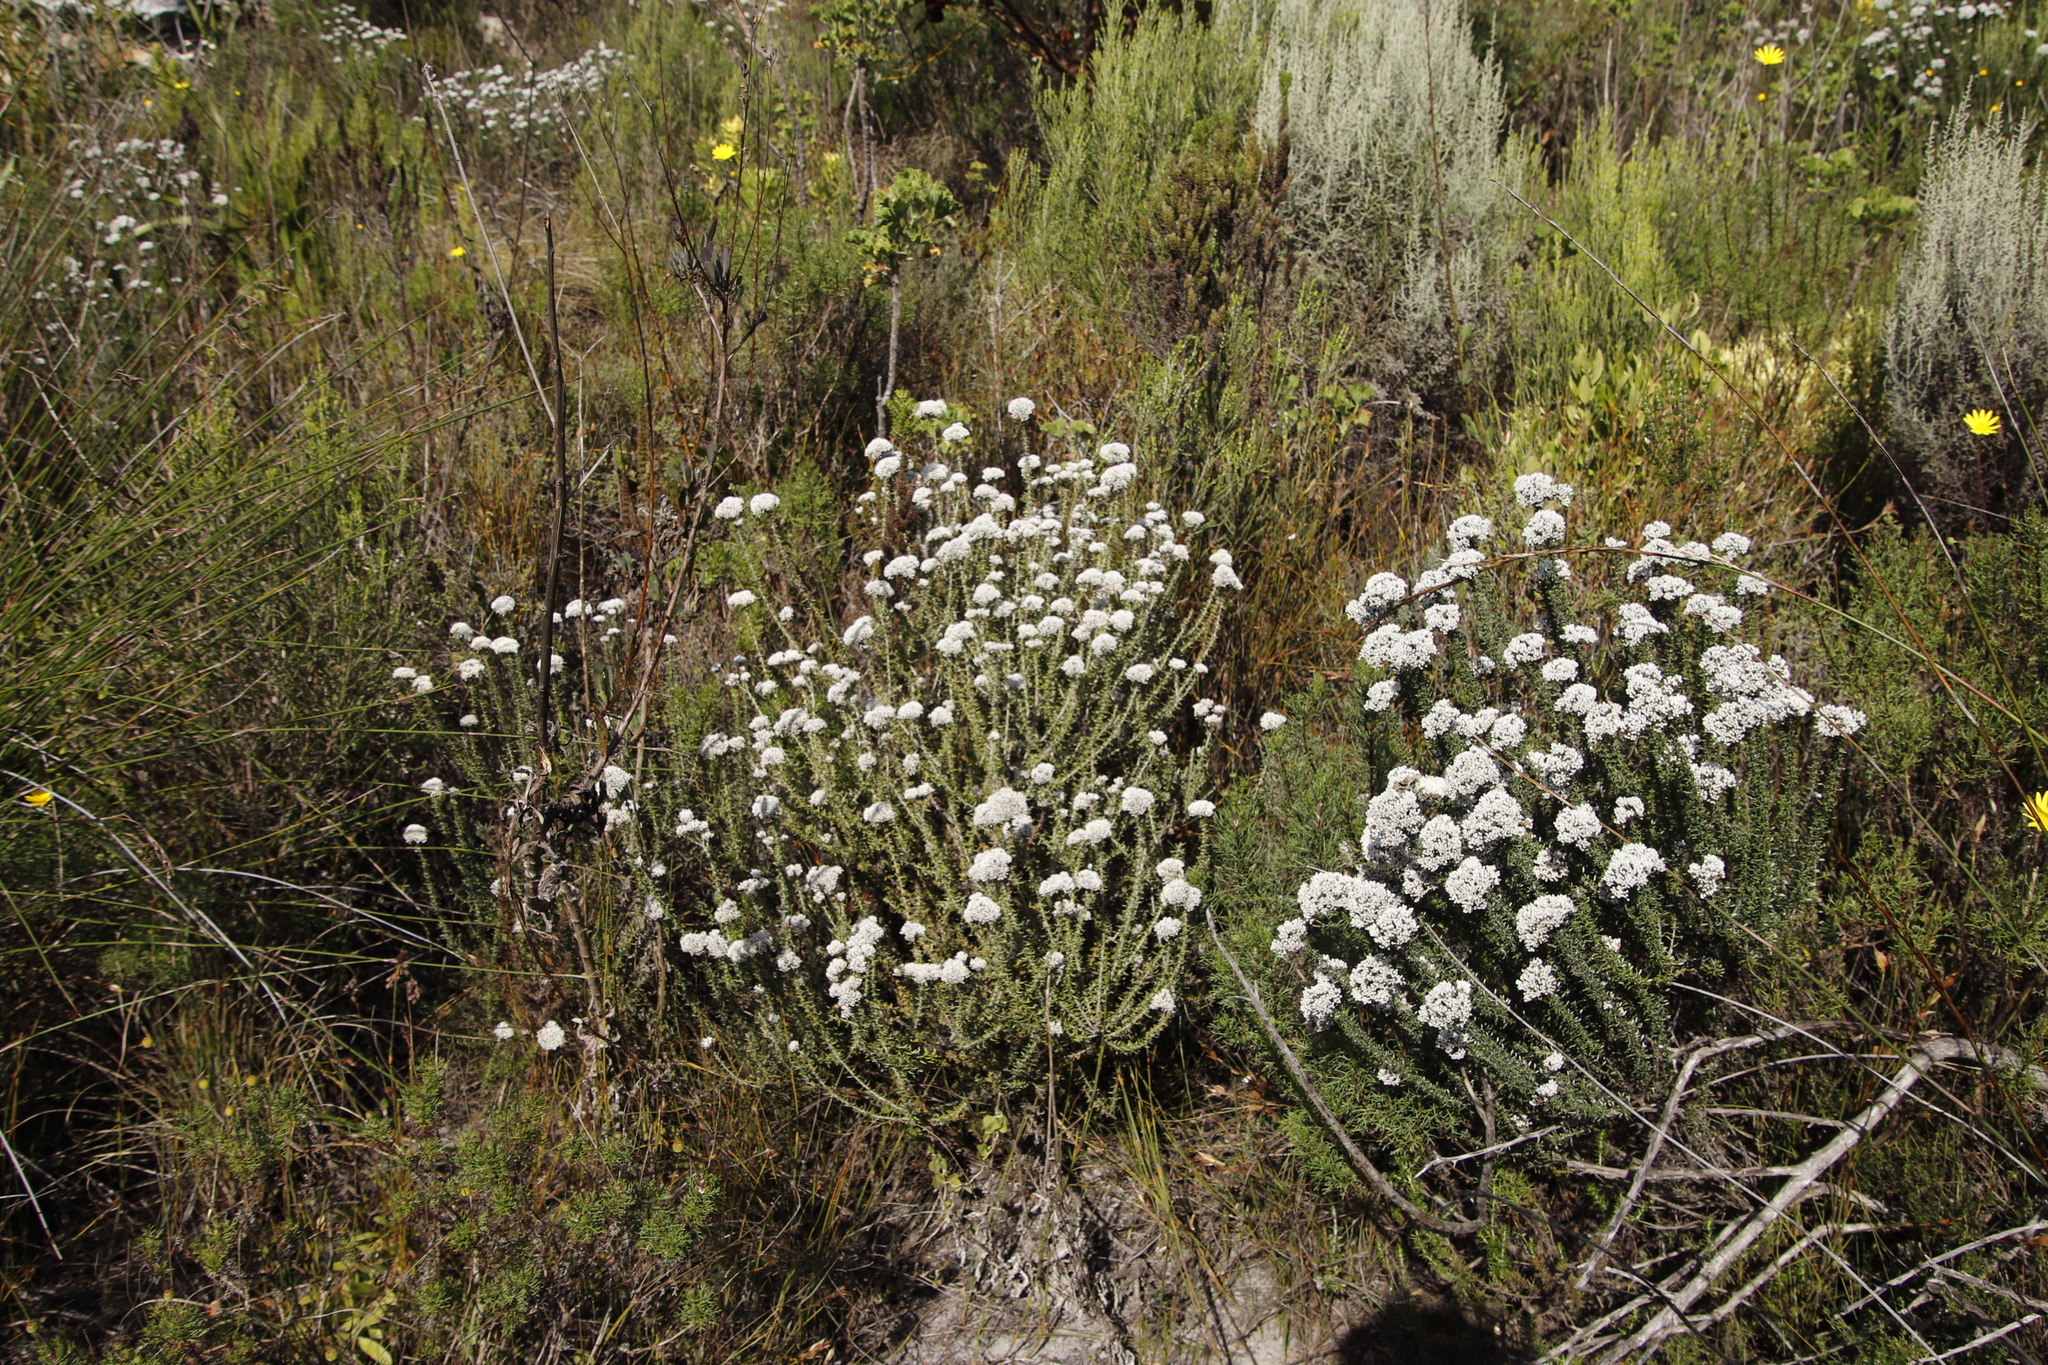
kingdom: Plantae
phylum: Tracheophyta
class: Magnoliopsida
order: Asterales
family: Asteraceae
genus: Metalasia
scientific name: Metalasia densa
